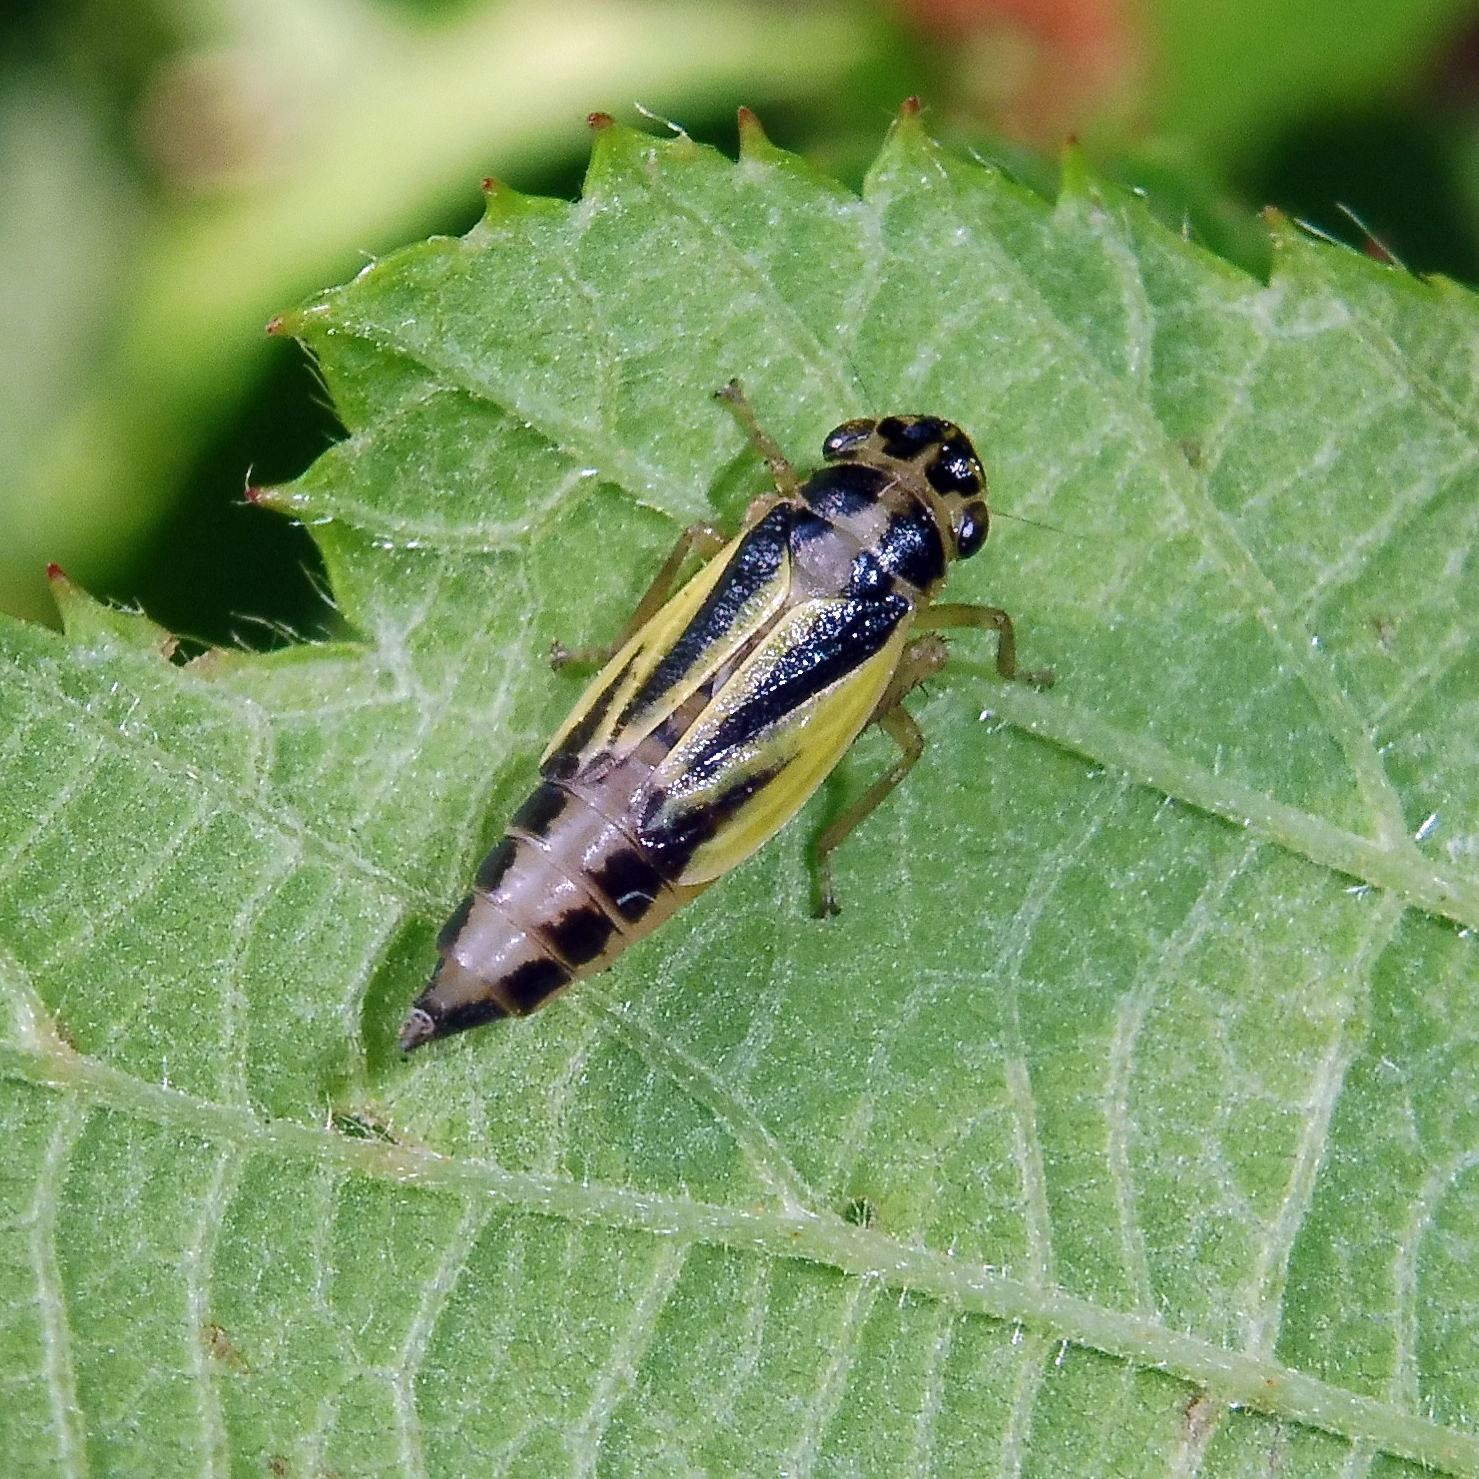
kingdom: Animalia
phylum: Arthropoda
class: Insecta
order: Hemiptera
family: Cicadellidae
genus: Evacanthus
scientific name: Evacanthus interruptus
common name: Leafhopper
